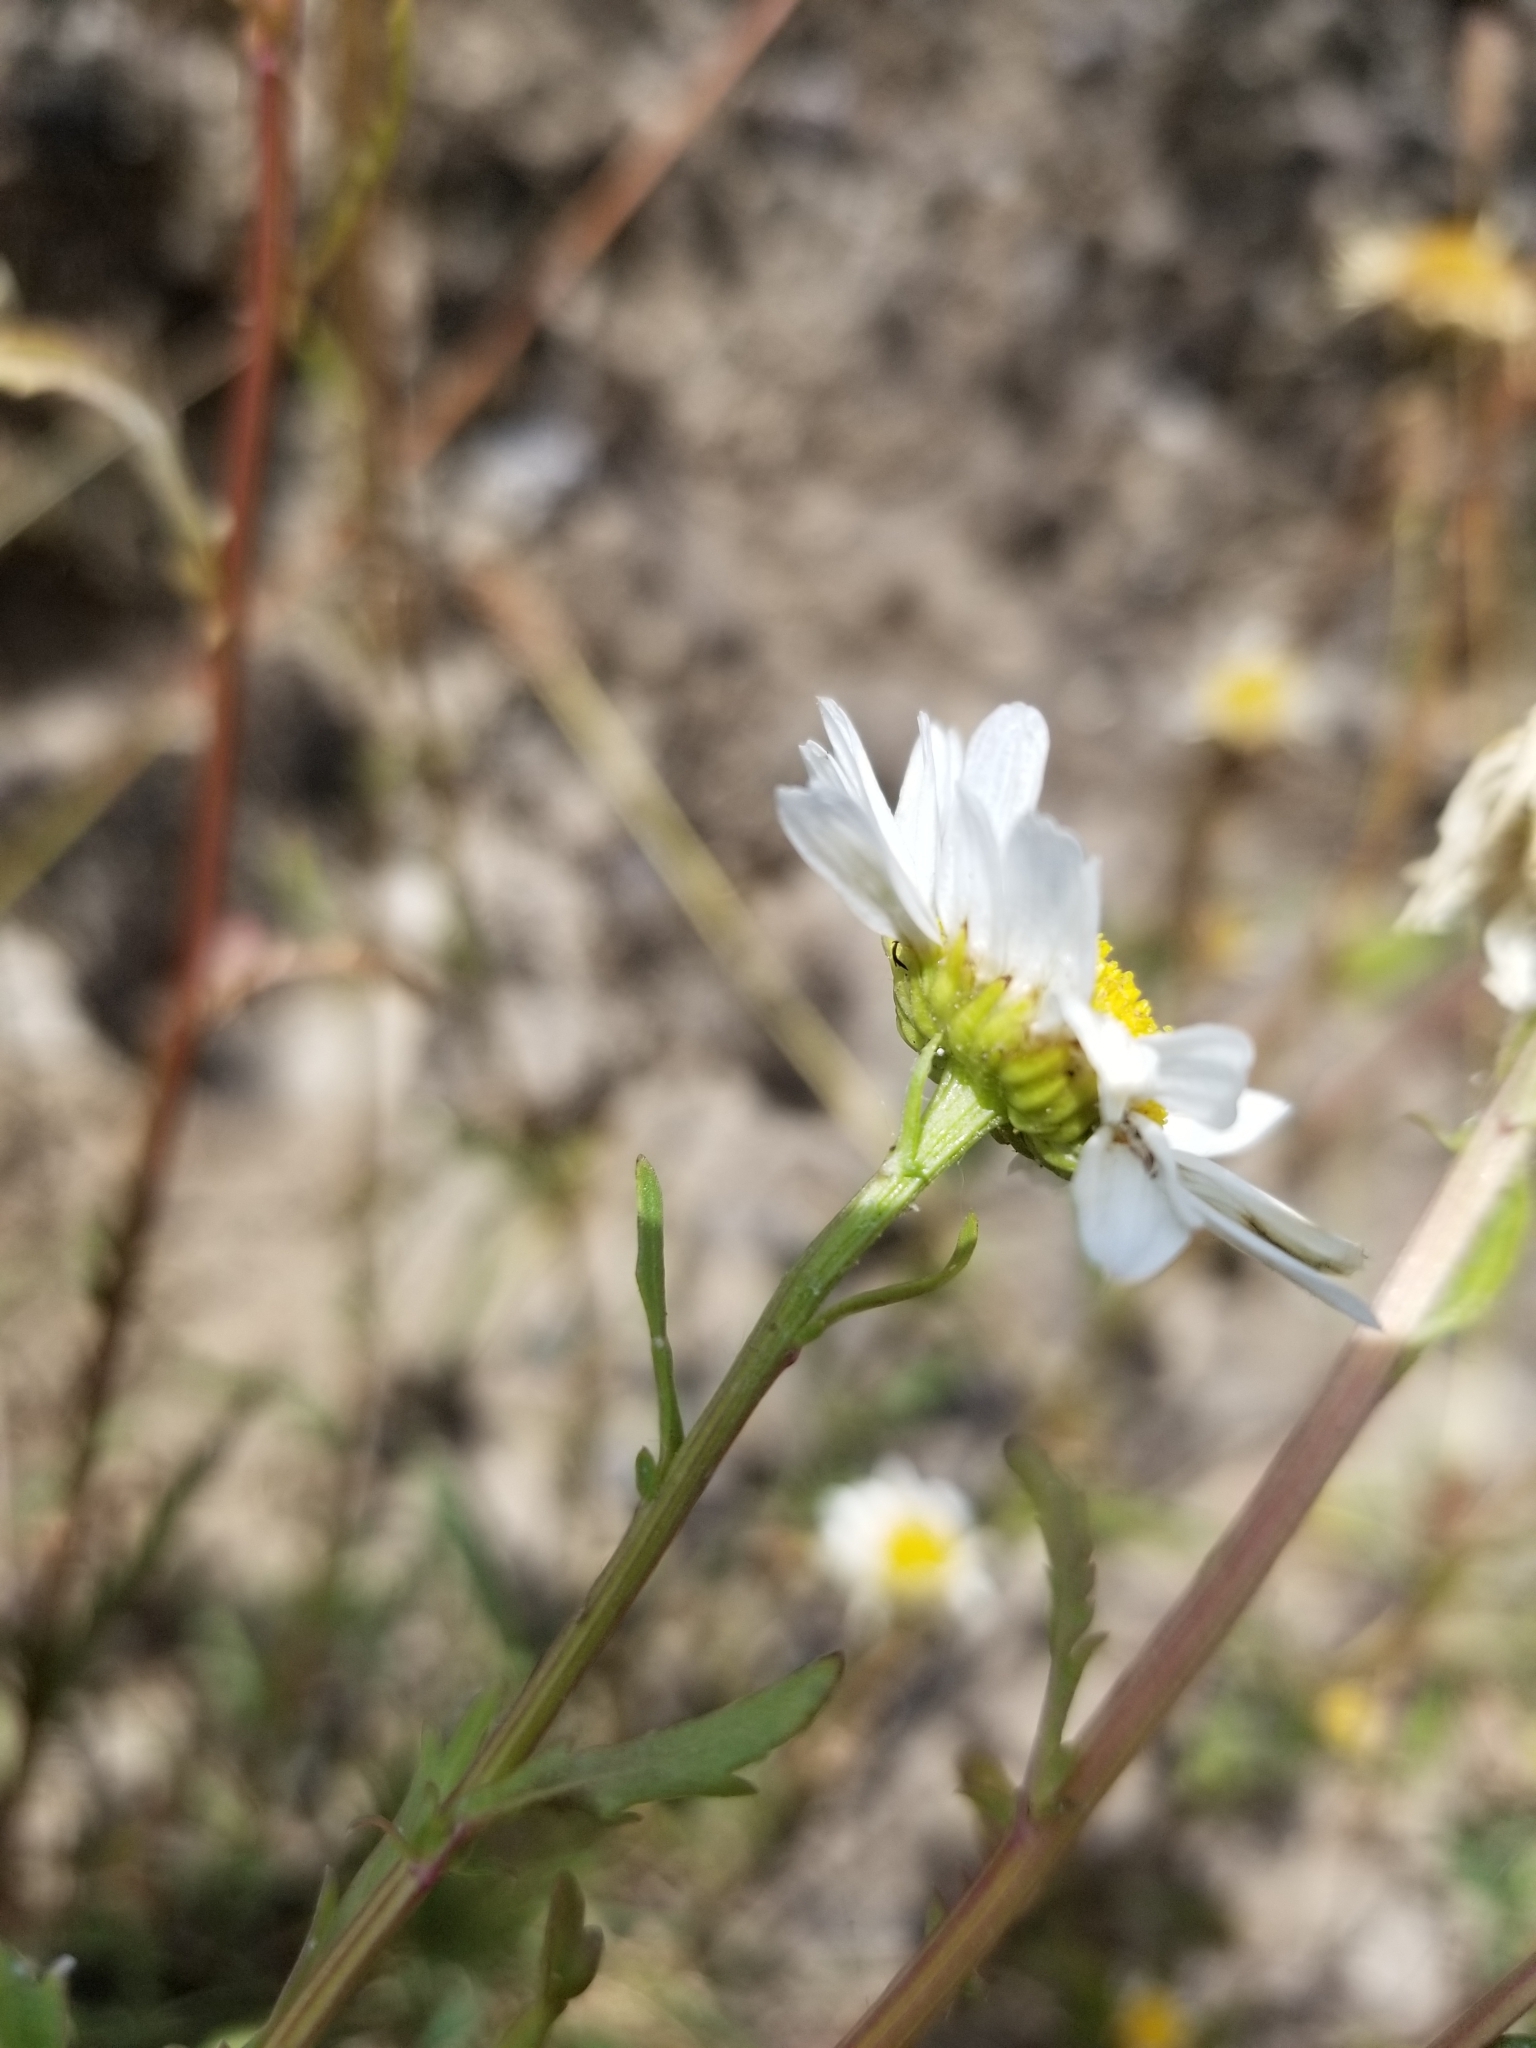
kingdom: Plantae
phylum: Tracheophyta
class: Magnoliopsida
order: Asterales
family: Asteraceae
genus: Leucanthemum
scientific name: Leucanthemum vulgare
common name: Oxeye daisy
